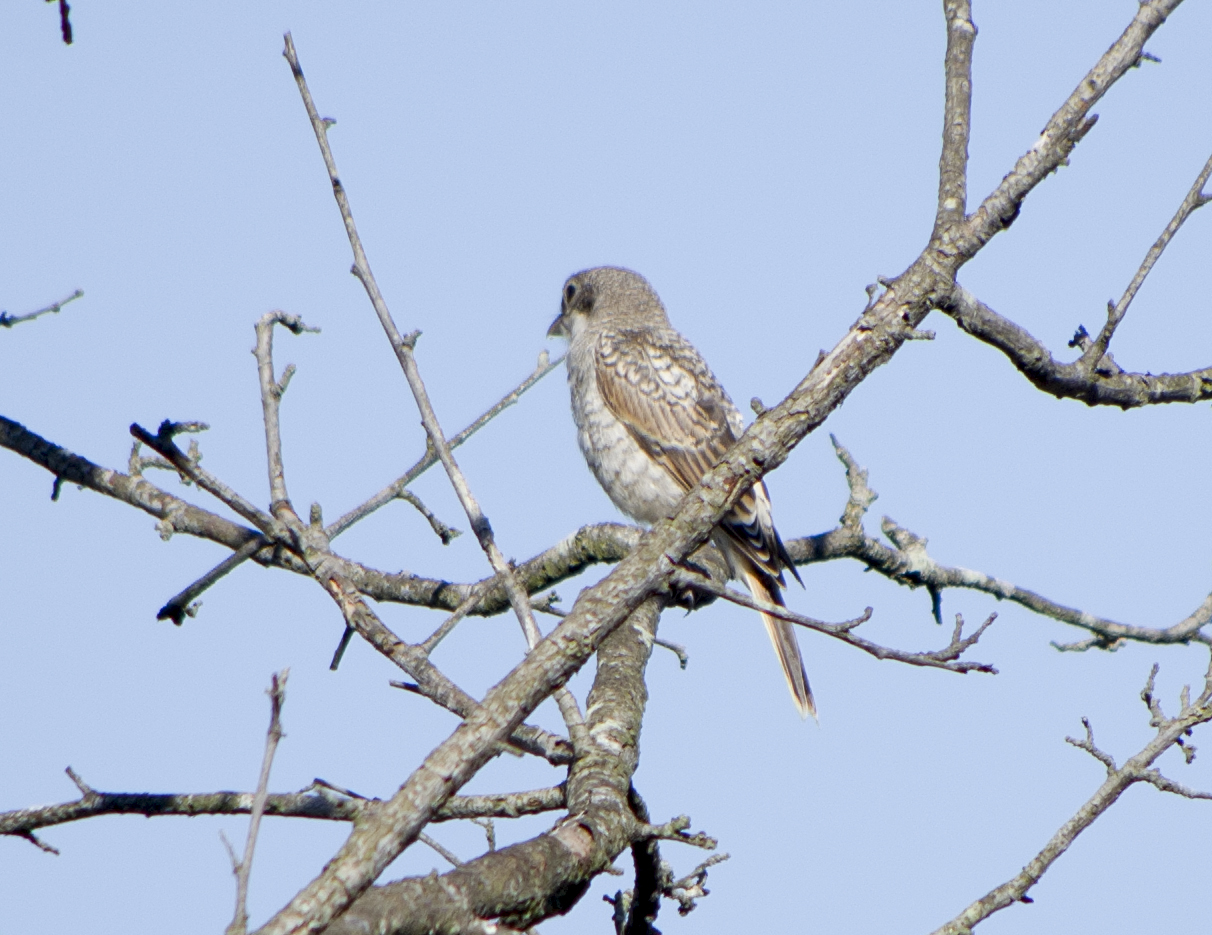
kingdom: Animalia
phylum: Chordata
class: Aves
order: Passeriformes
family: Laniidae
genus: Lanius
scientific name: Lanius collurio
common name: Red-backed shrike
